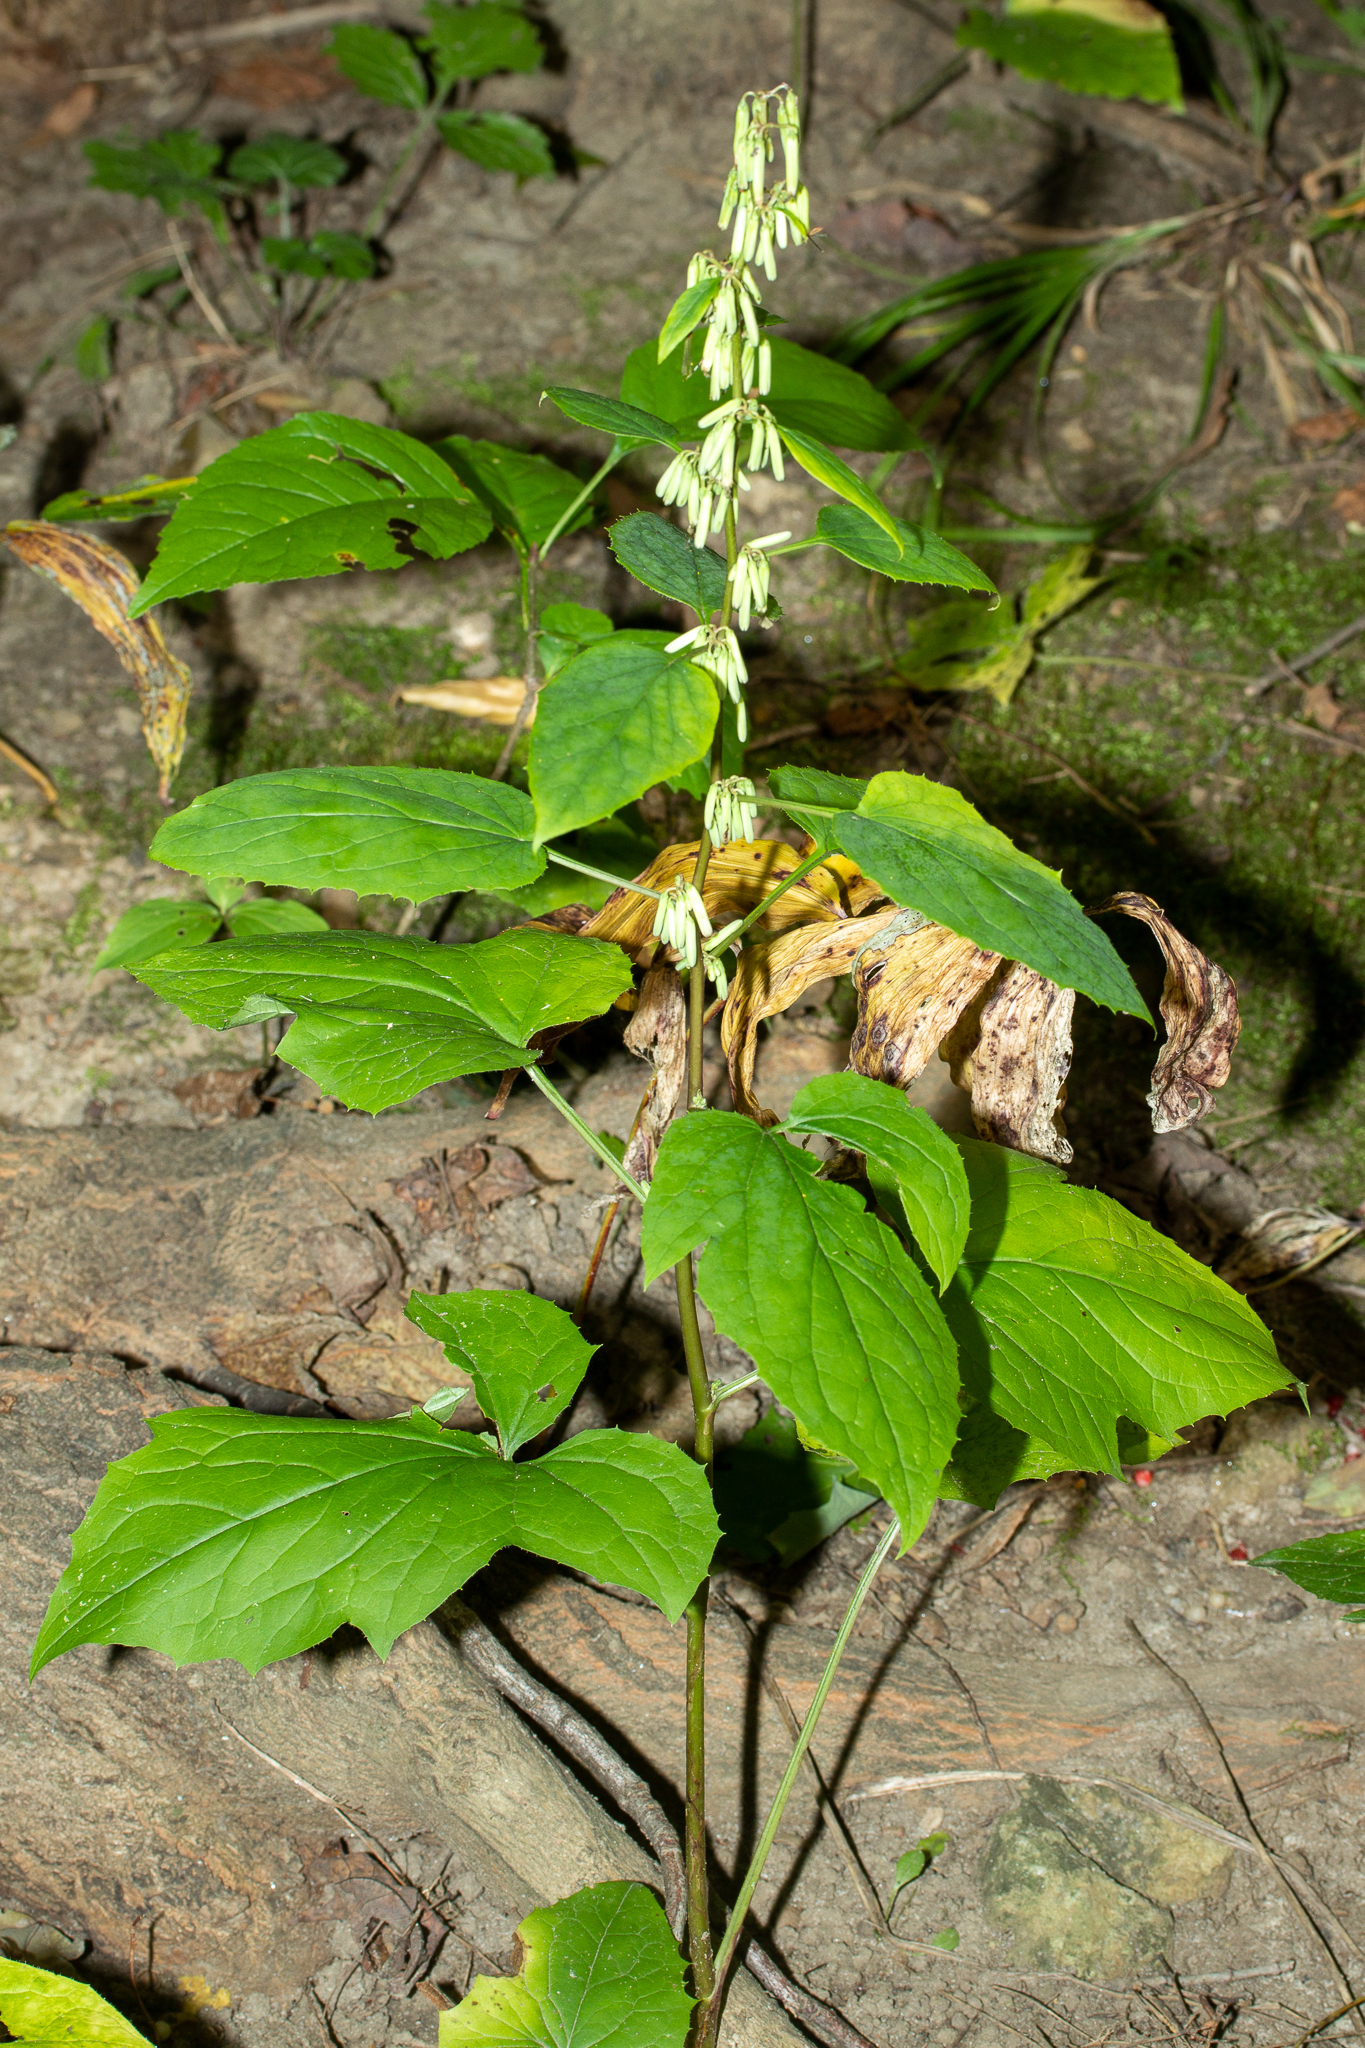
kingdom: Plantae
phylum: Tracheophyta
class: Magnoliopsida
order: Asterales
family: Asteraceae
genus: Nabalus
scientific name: Nabalus altissima
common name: Tall rattlesnakeroot
